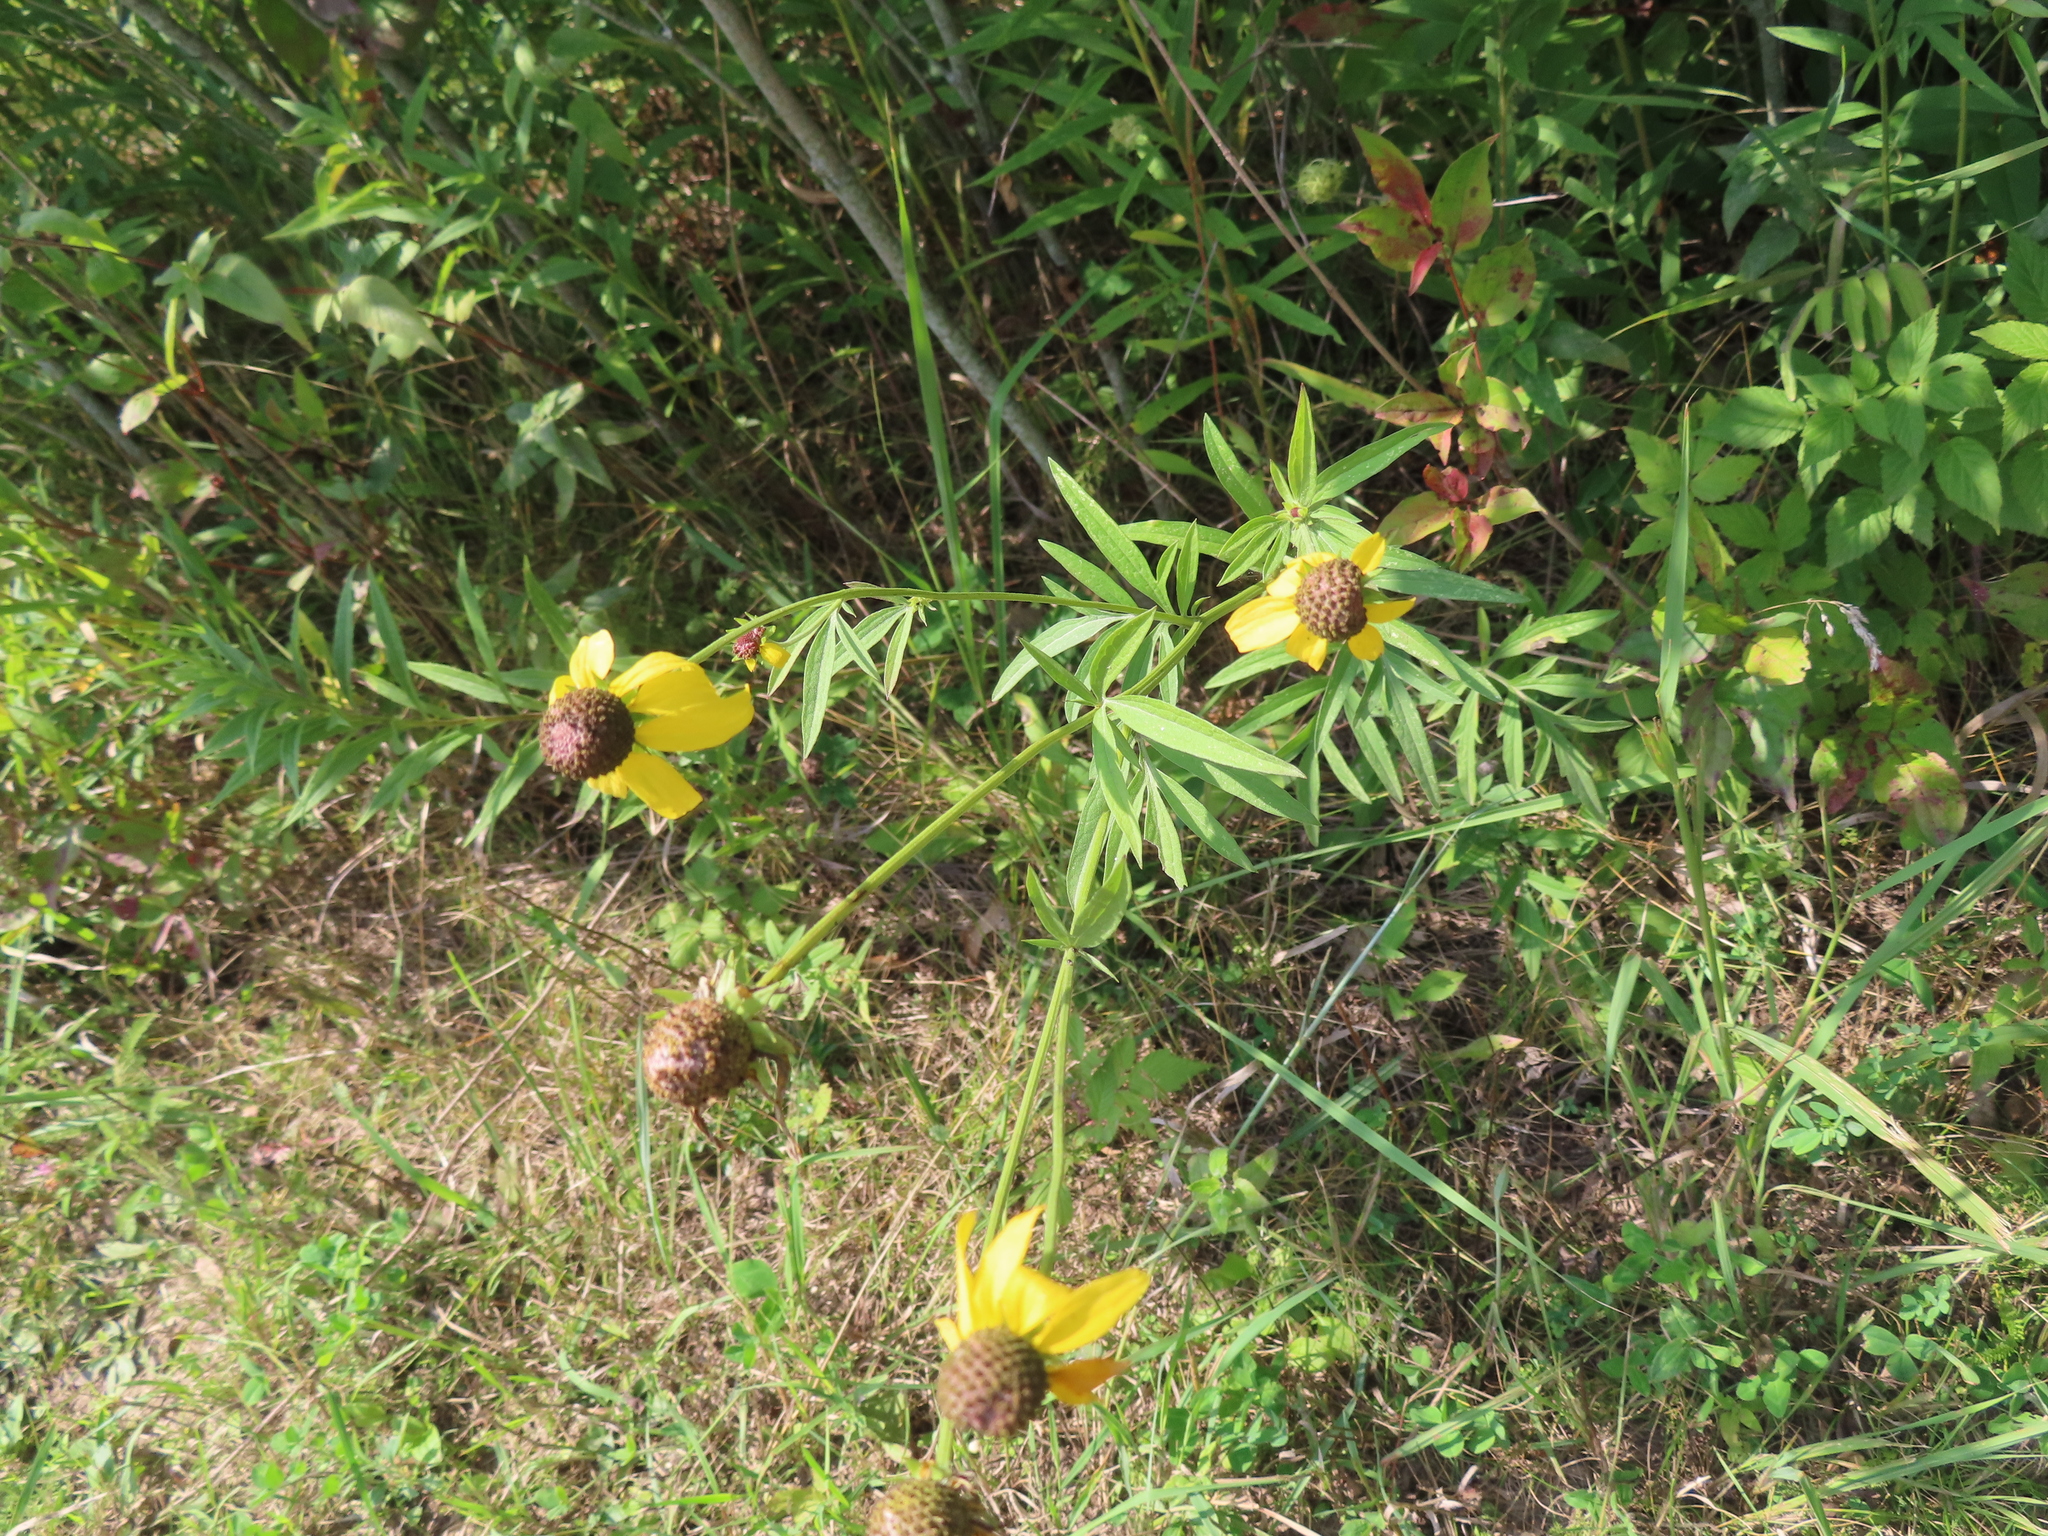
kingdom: Plantae
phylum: Tracheophyta
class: Magnoliopsida
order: Asterales
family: Asteraceae
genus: Ratibida
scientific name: Ratibida pinnata
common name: Drooping prairie-coneflower
